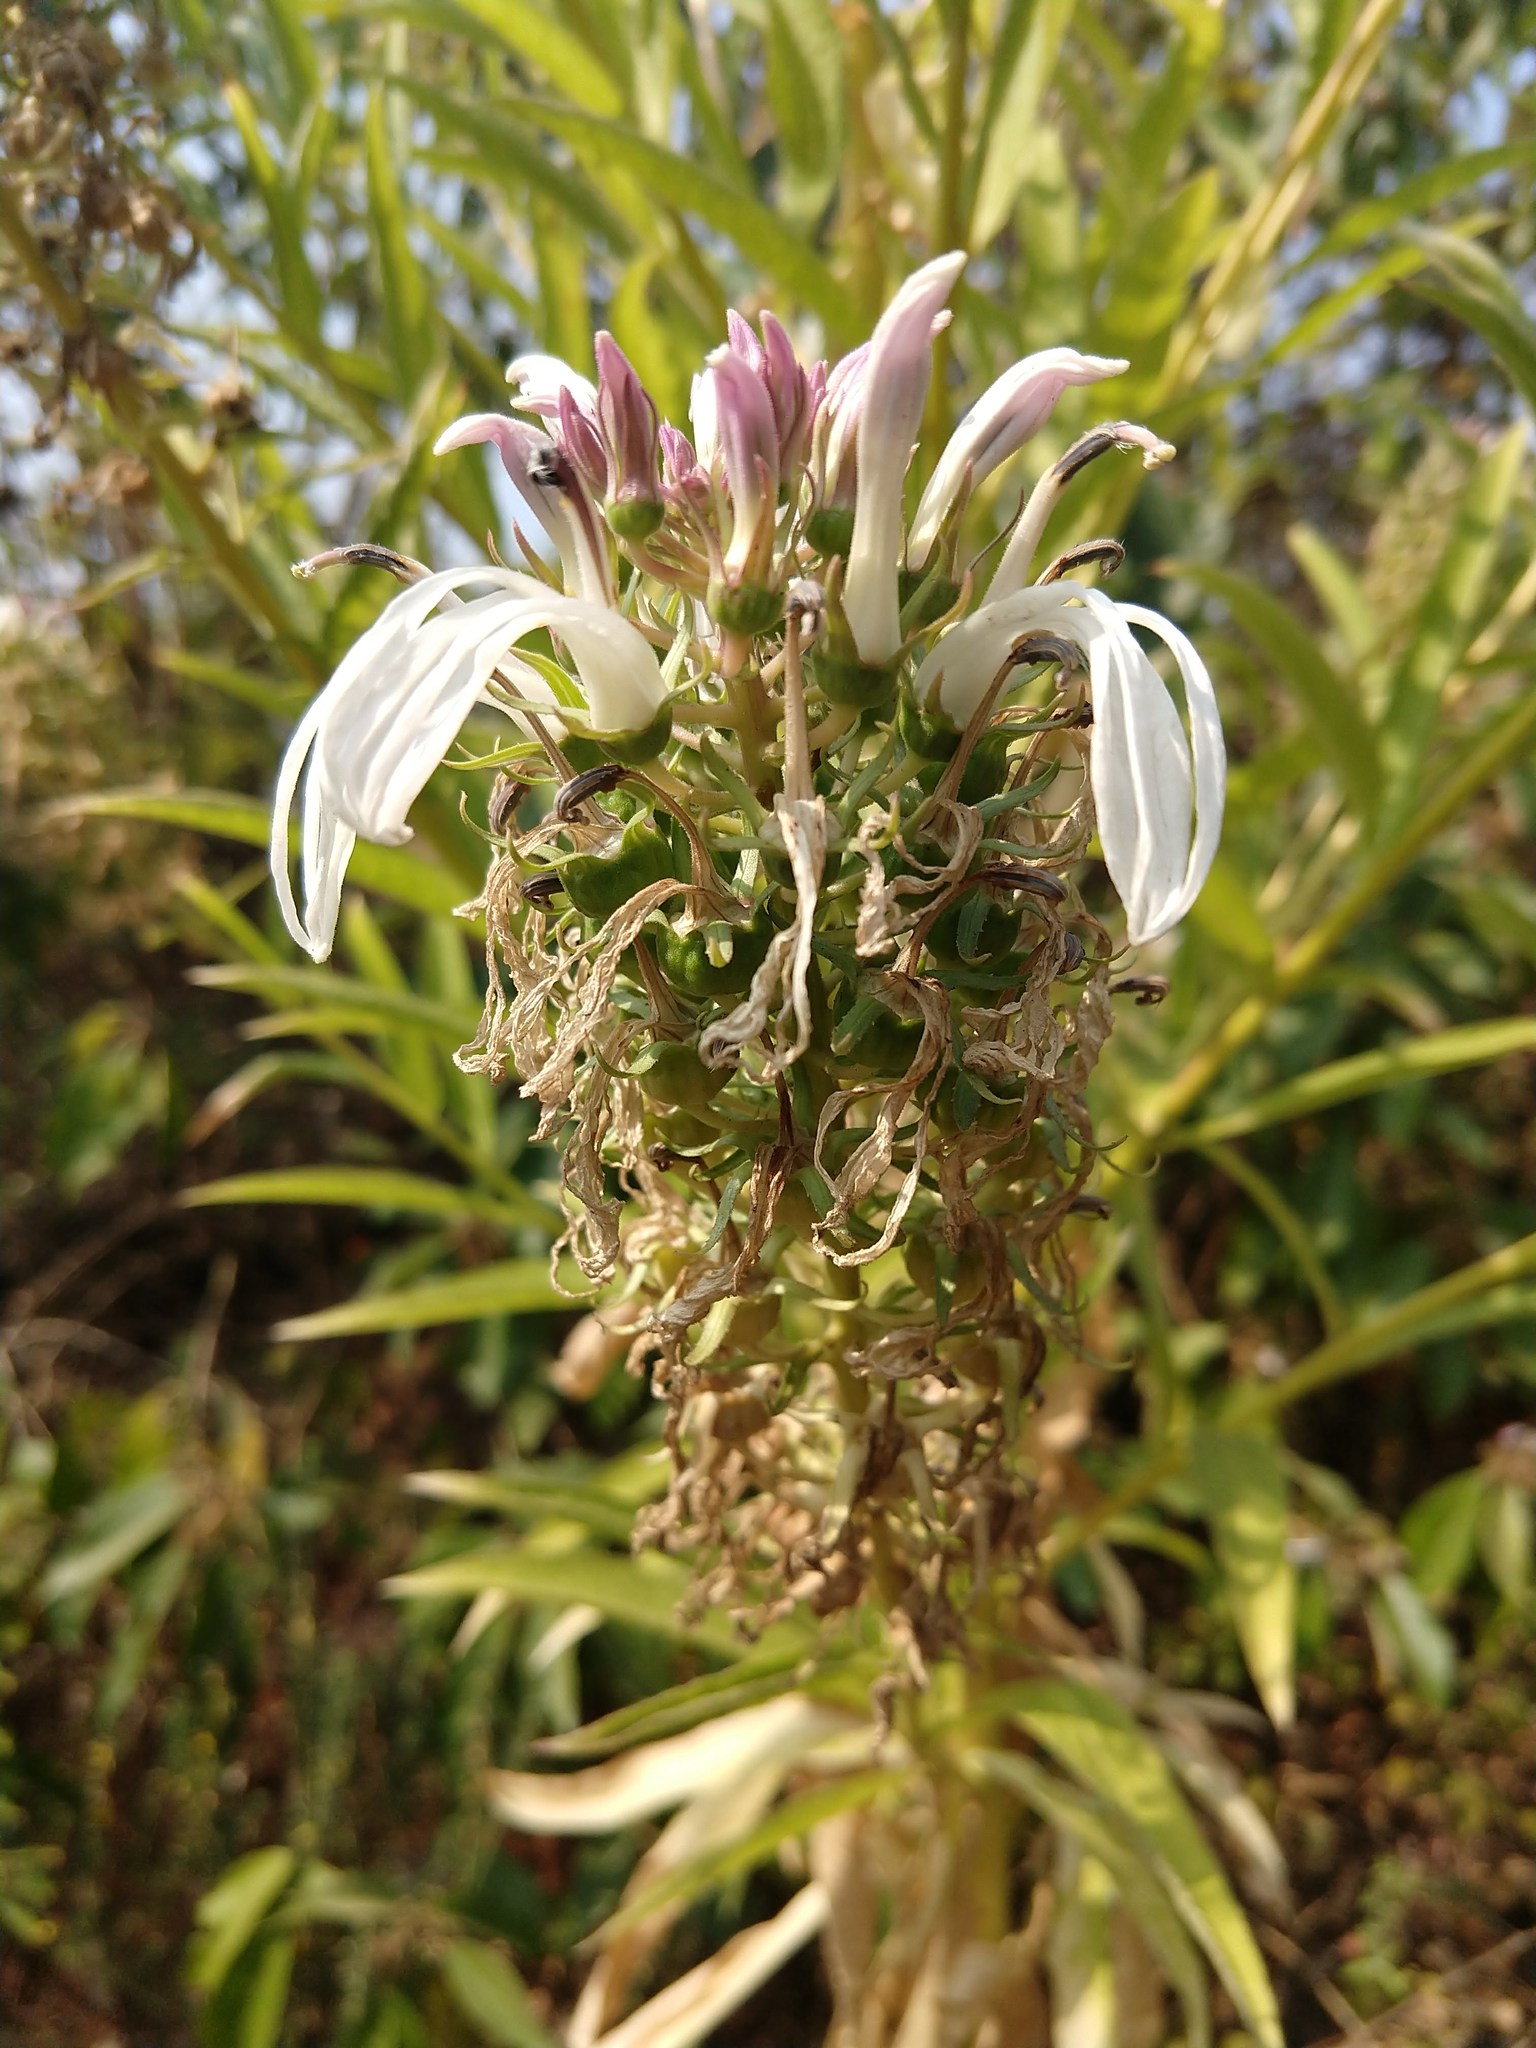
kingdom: Plantae
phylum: Tracheophyta
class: Magnoliopsida
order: Asterales
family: Campanulaceae
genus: Lobelia
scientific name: Lobelia nicotianifolia
